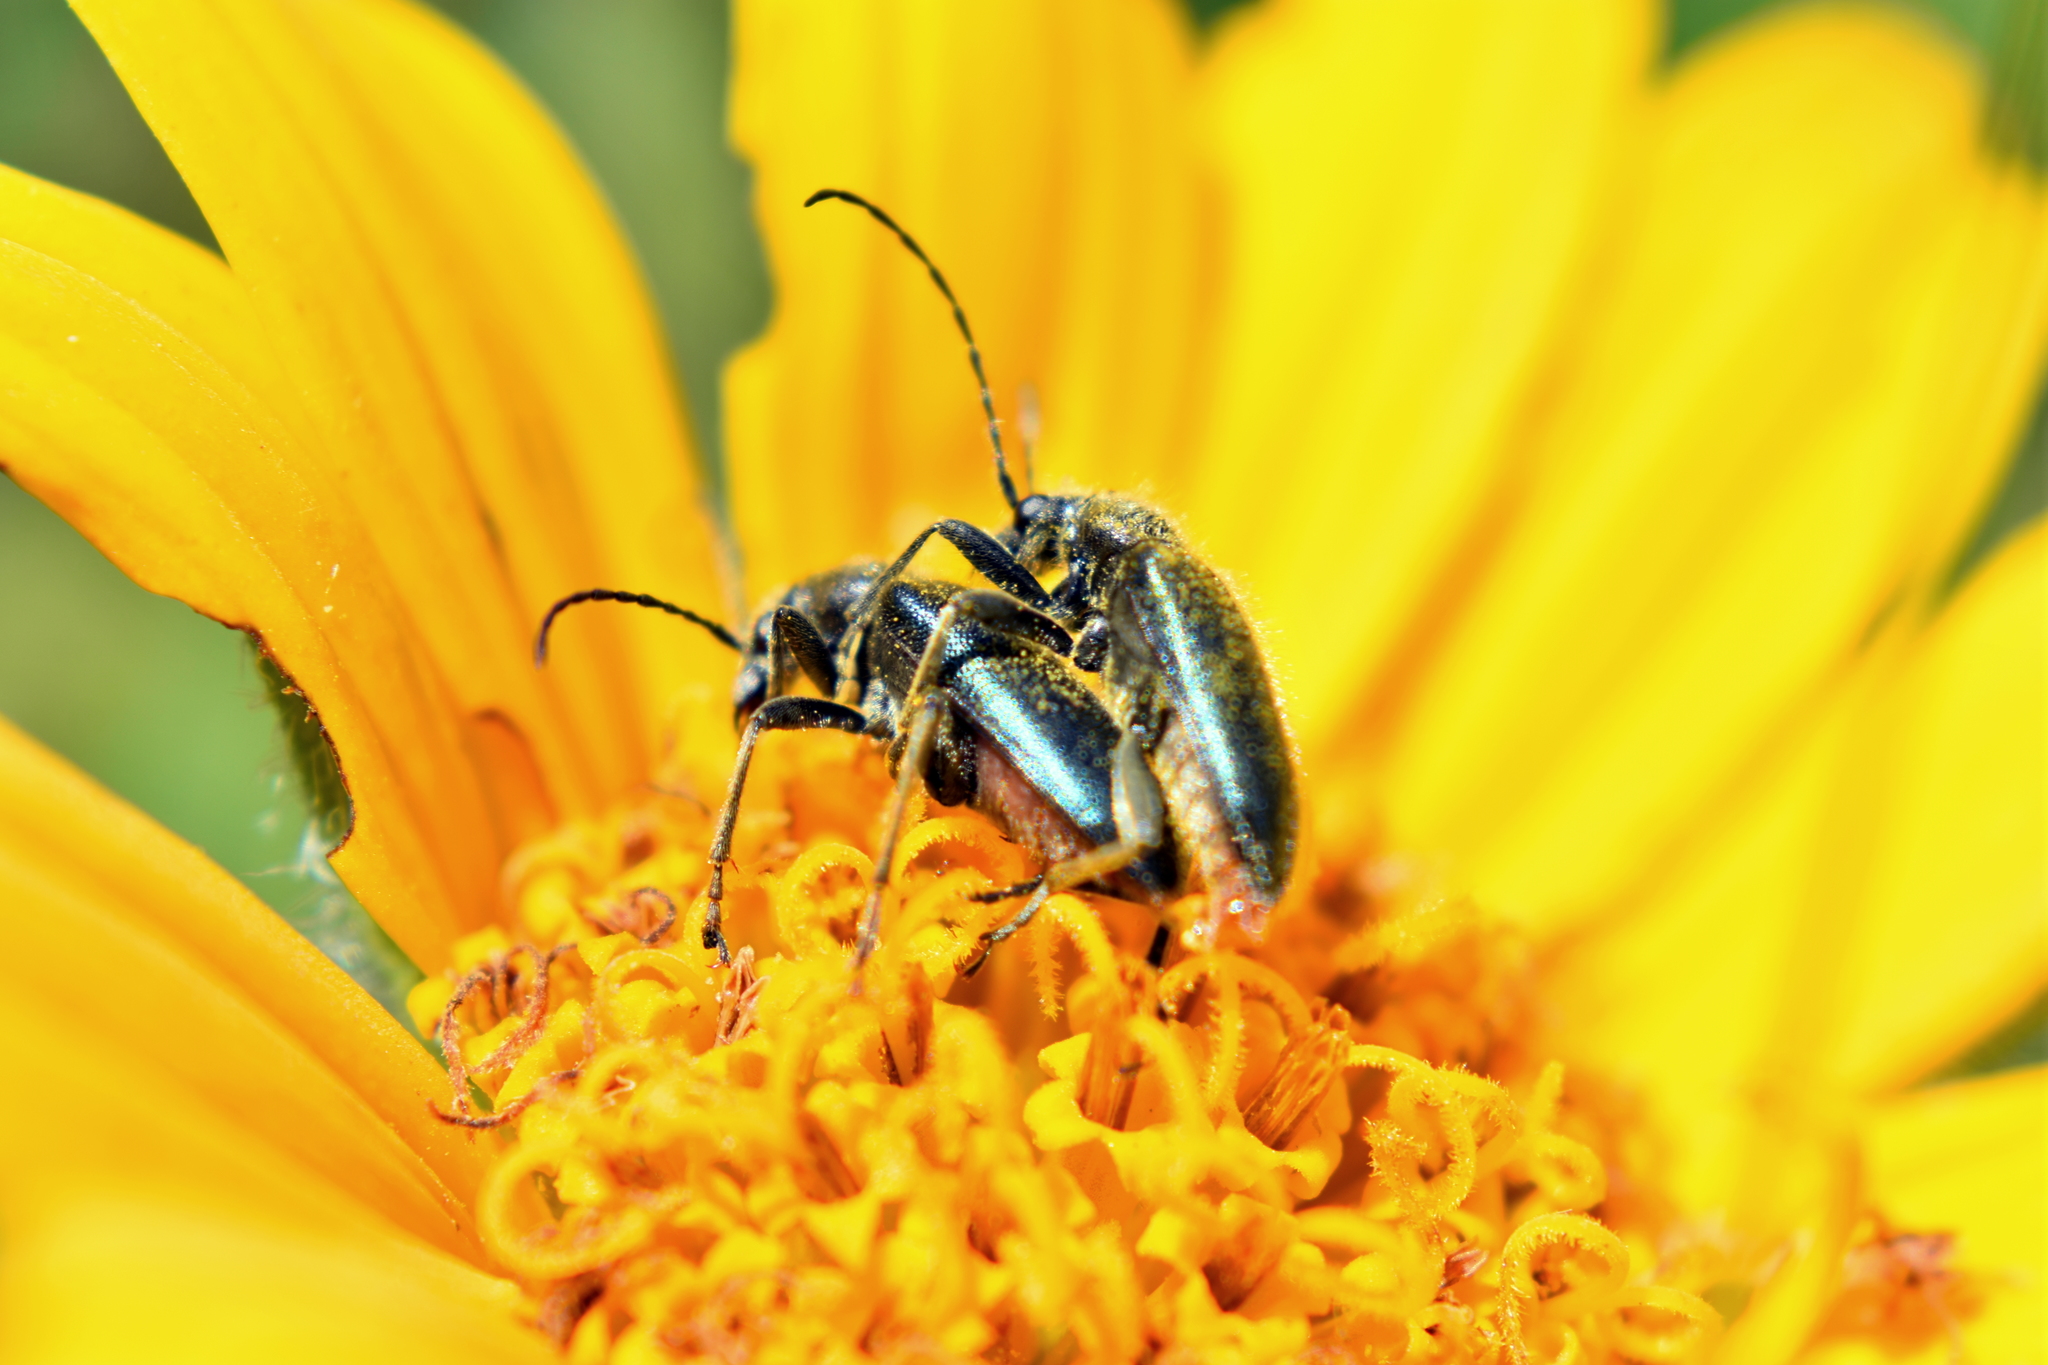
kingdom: Animalia
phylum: Arthropoda
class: Insecta
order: Coleoptera
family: Cerambycidae
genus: Brachysomida
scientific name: Brachysomida californica
